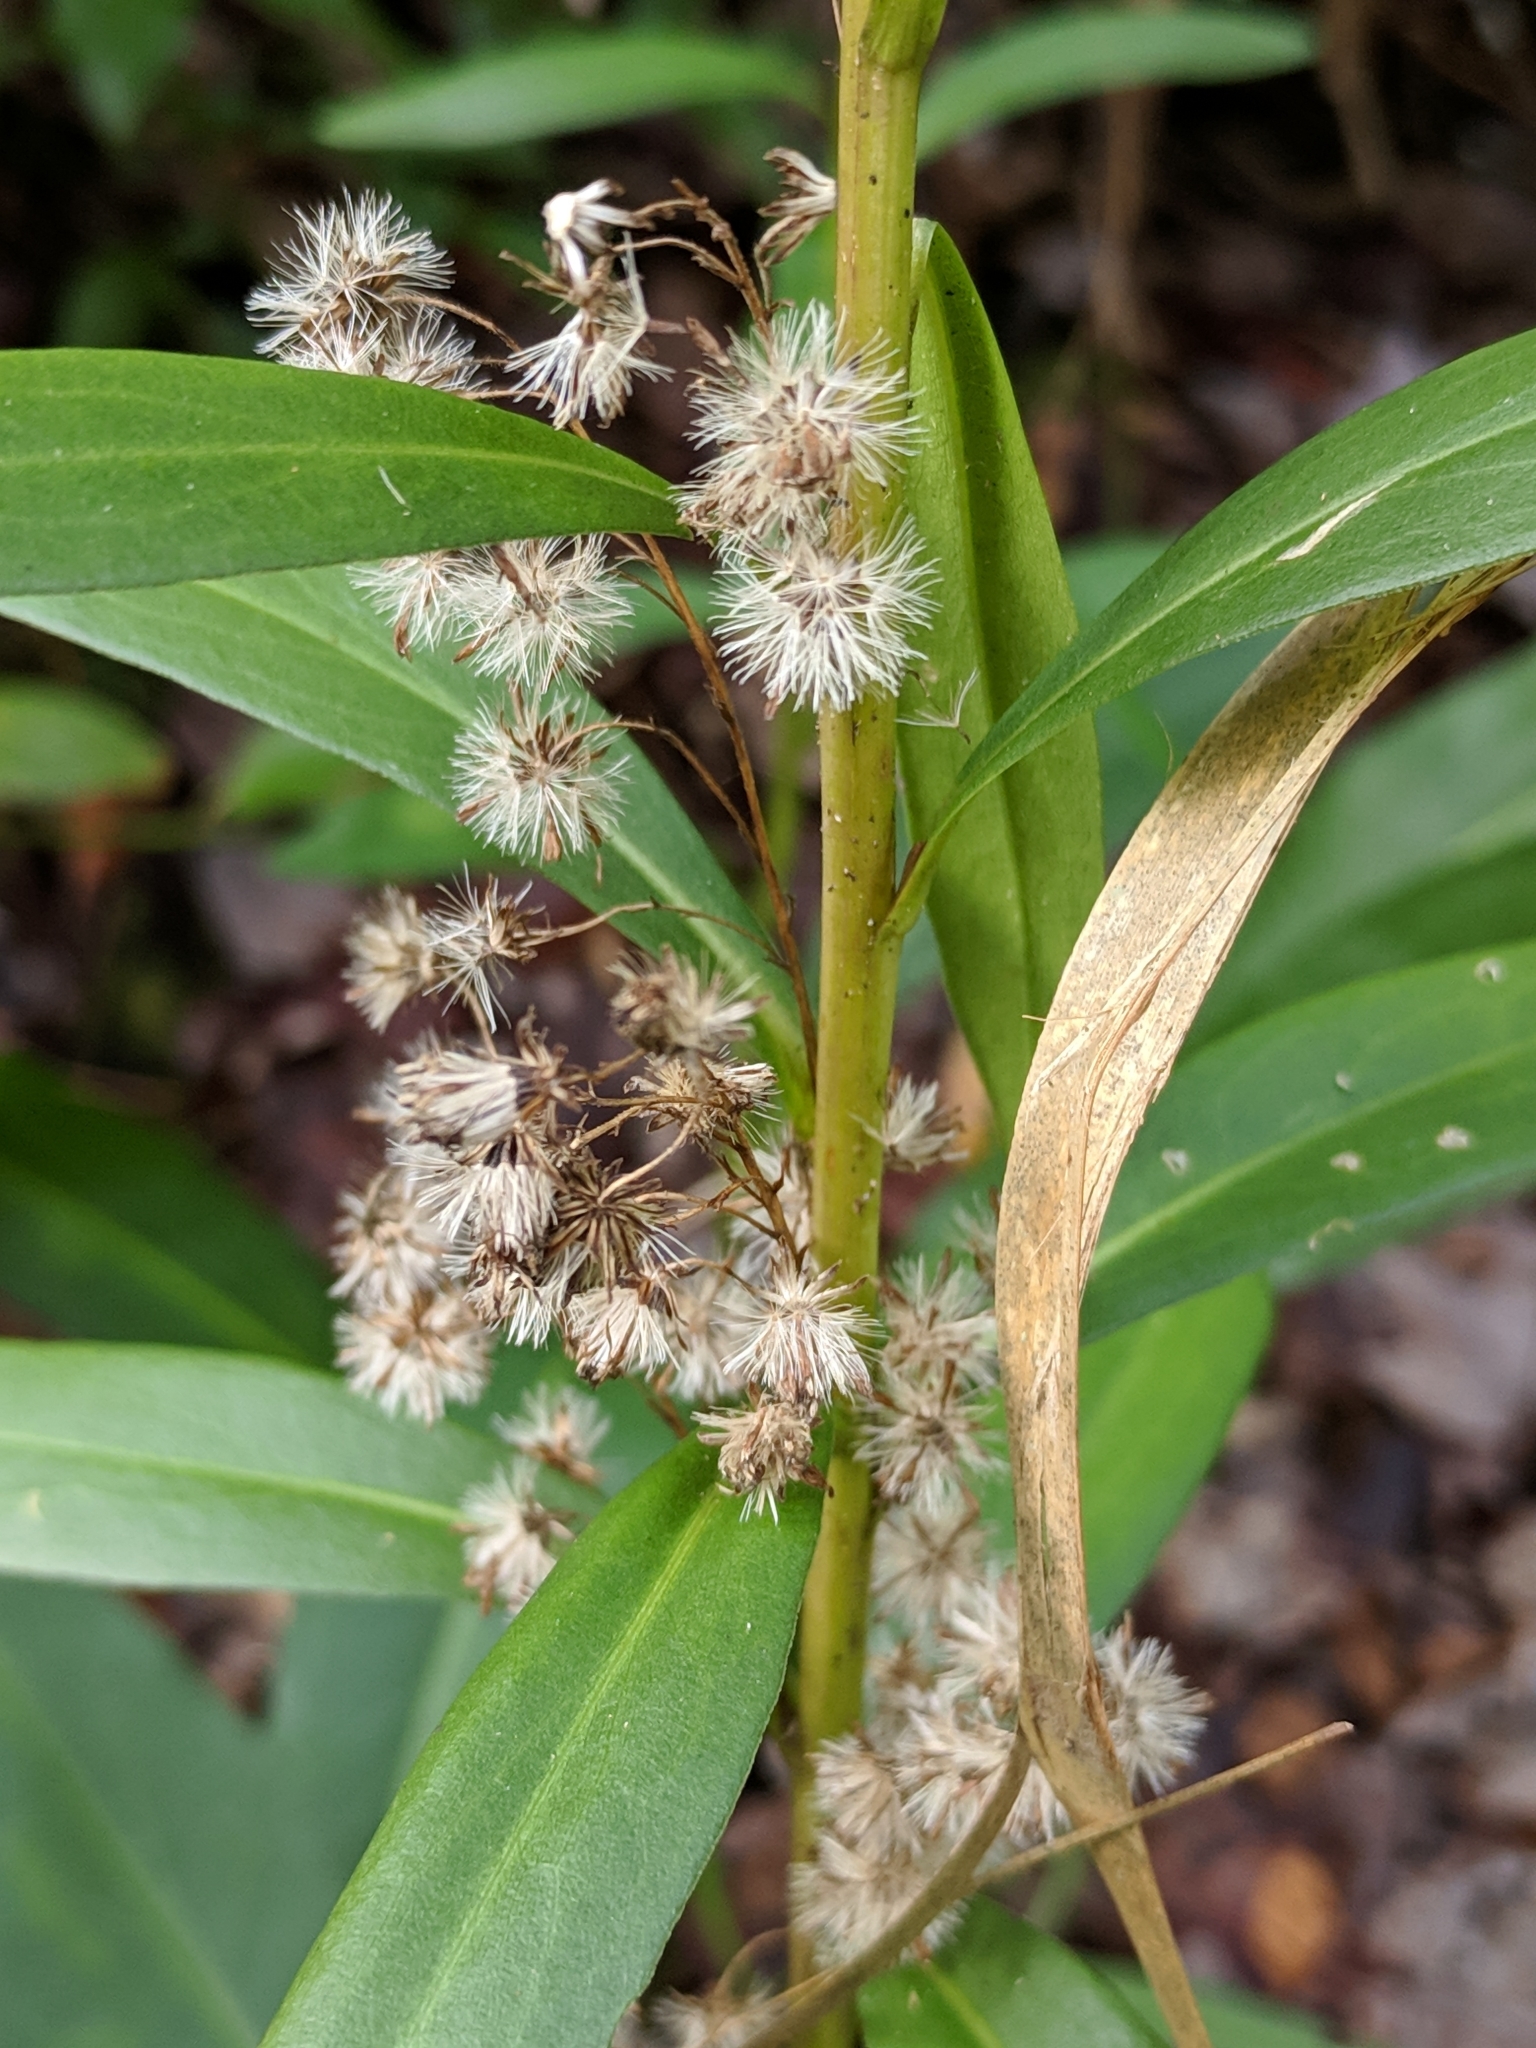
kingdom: Plantae
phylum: Tracheophyta
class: Magnoliopsida
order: Asterales
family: Asteraceae
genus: Solidago
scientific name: Solidago mexicana
